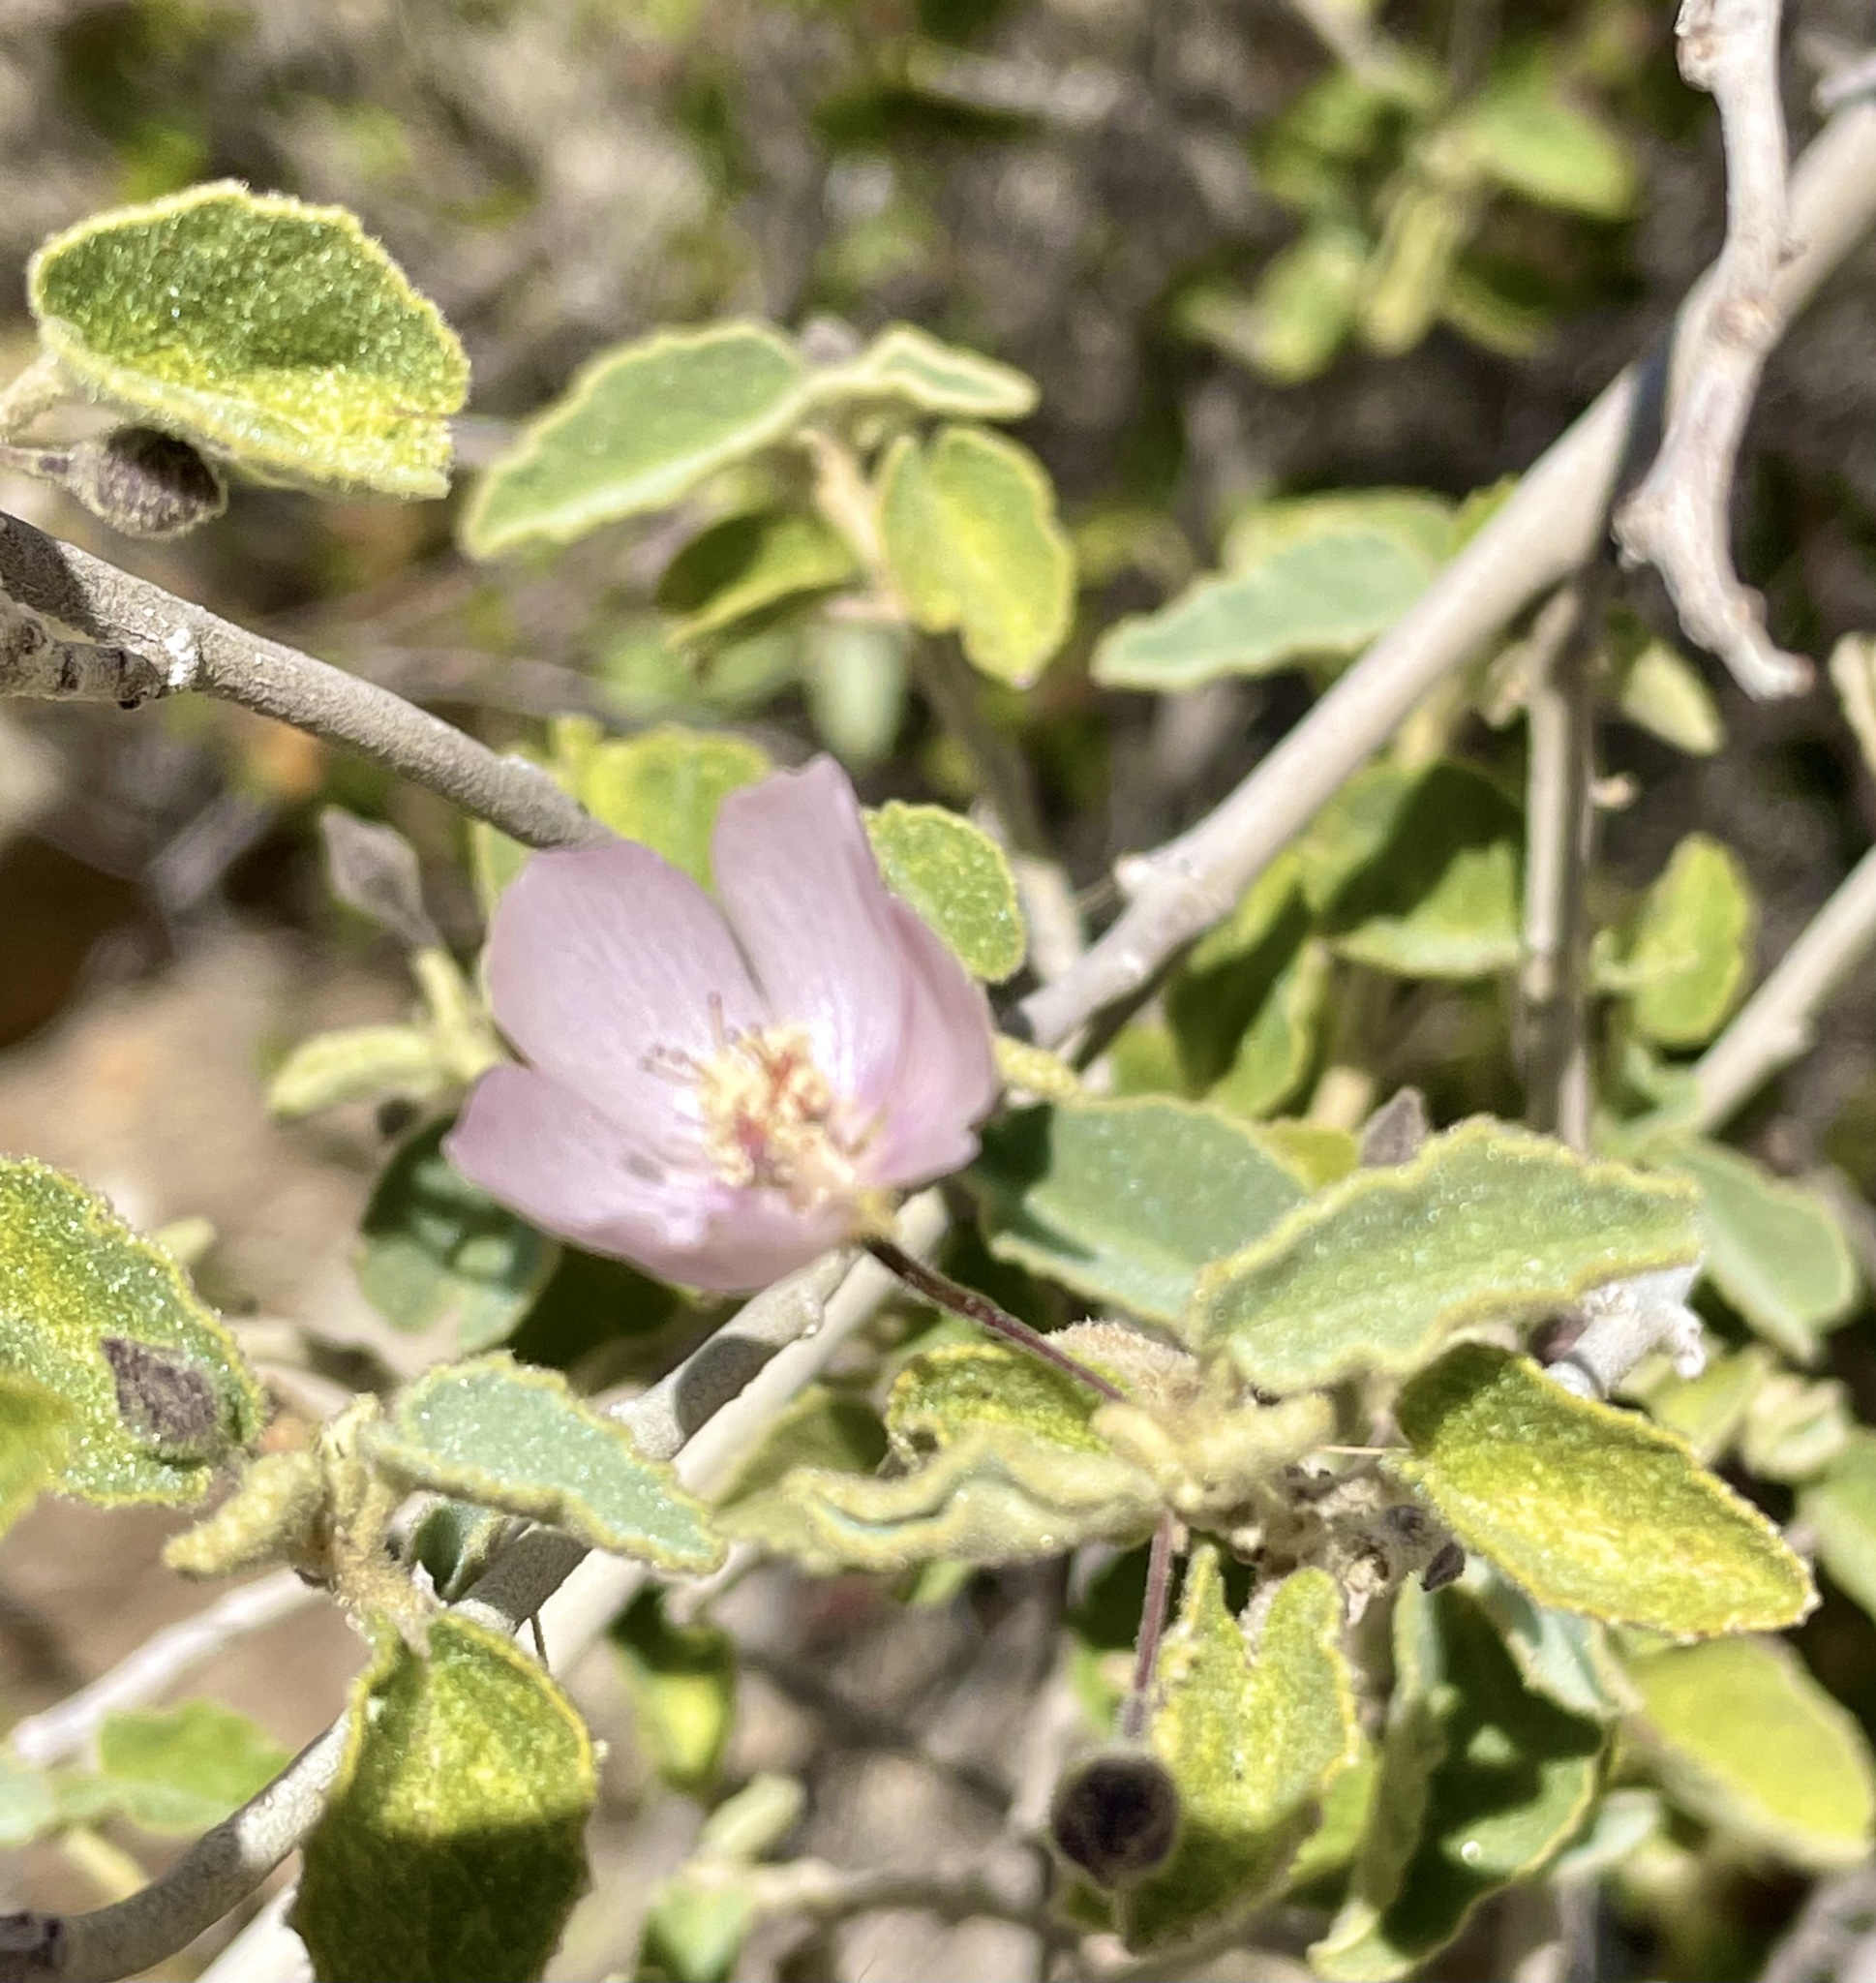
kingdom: Plantae
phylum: Tracheophyta
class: Magnoliopsida
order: Malvales
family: Malvaceae
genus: Horsfordia
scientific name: Horsfordia alata
